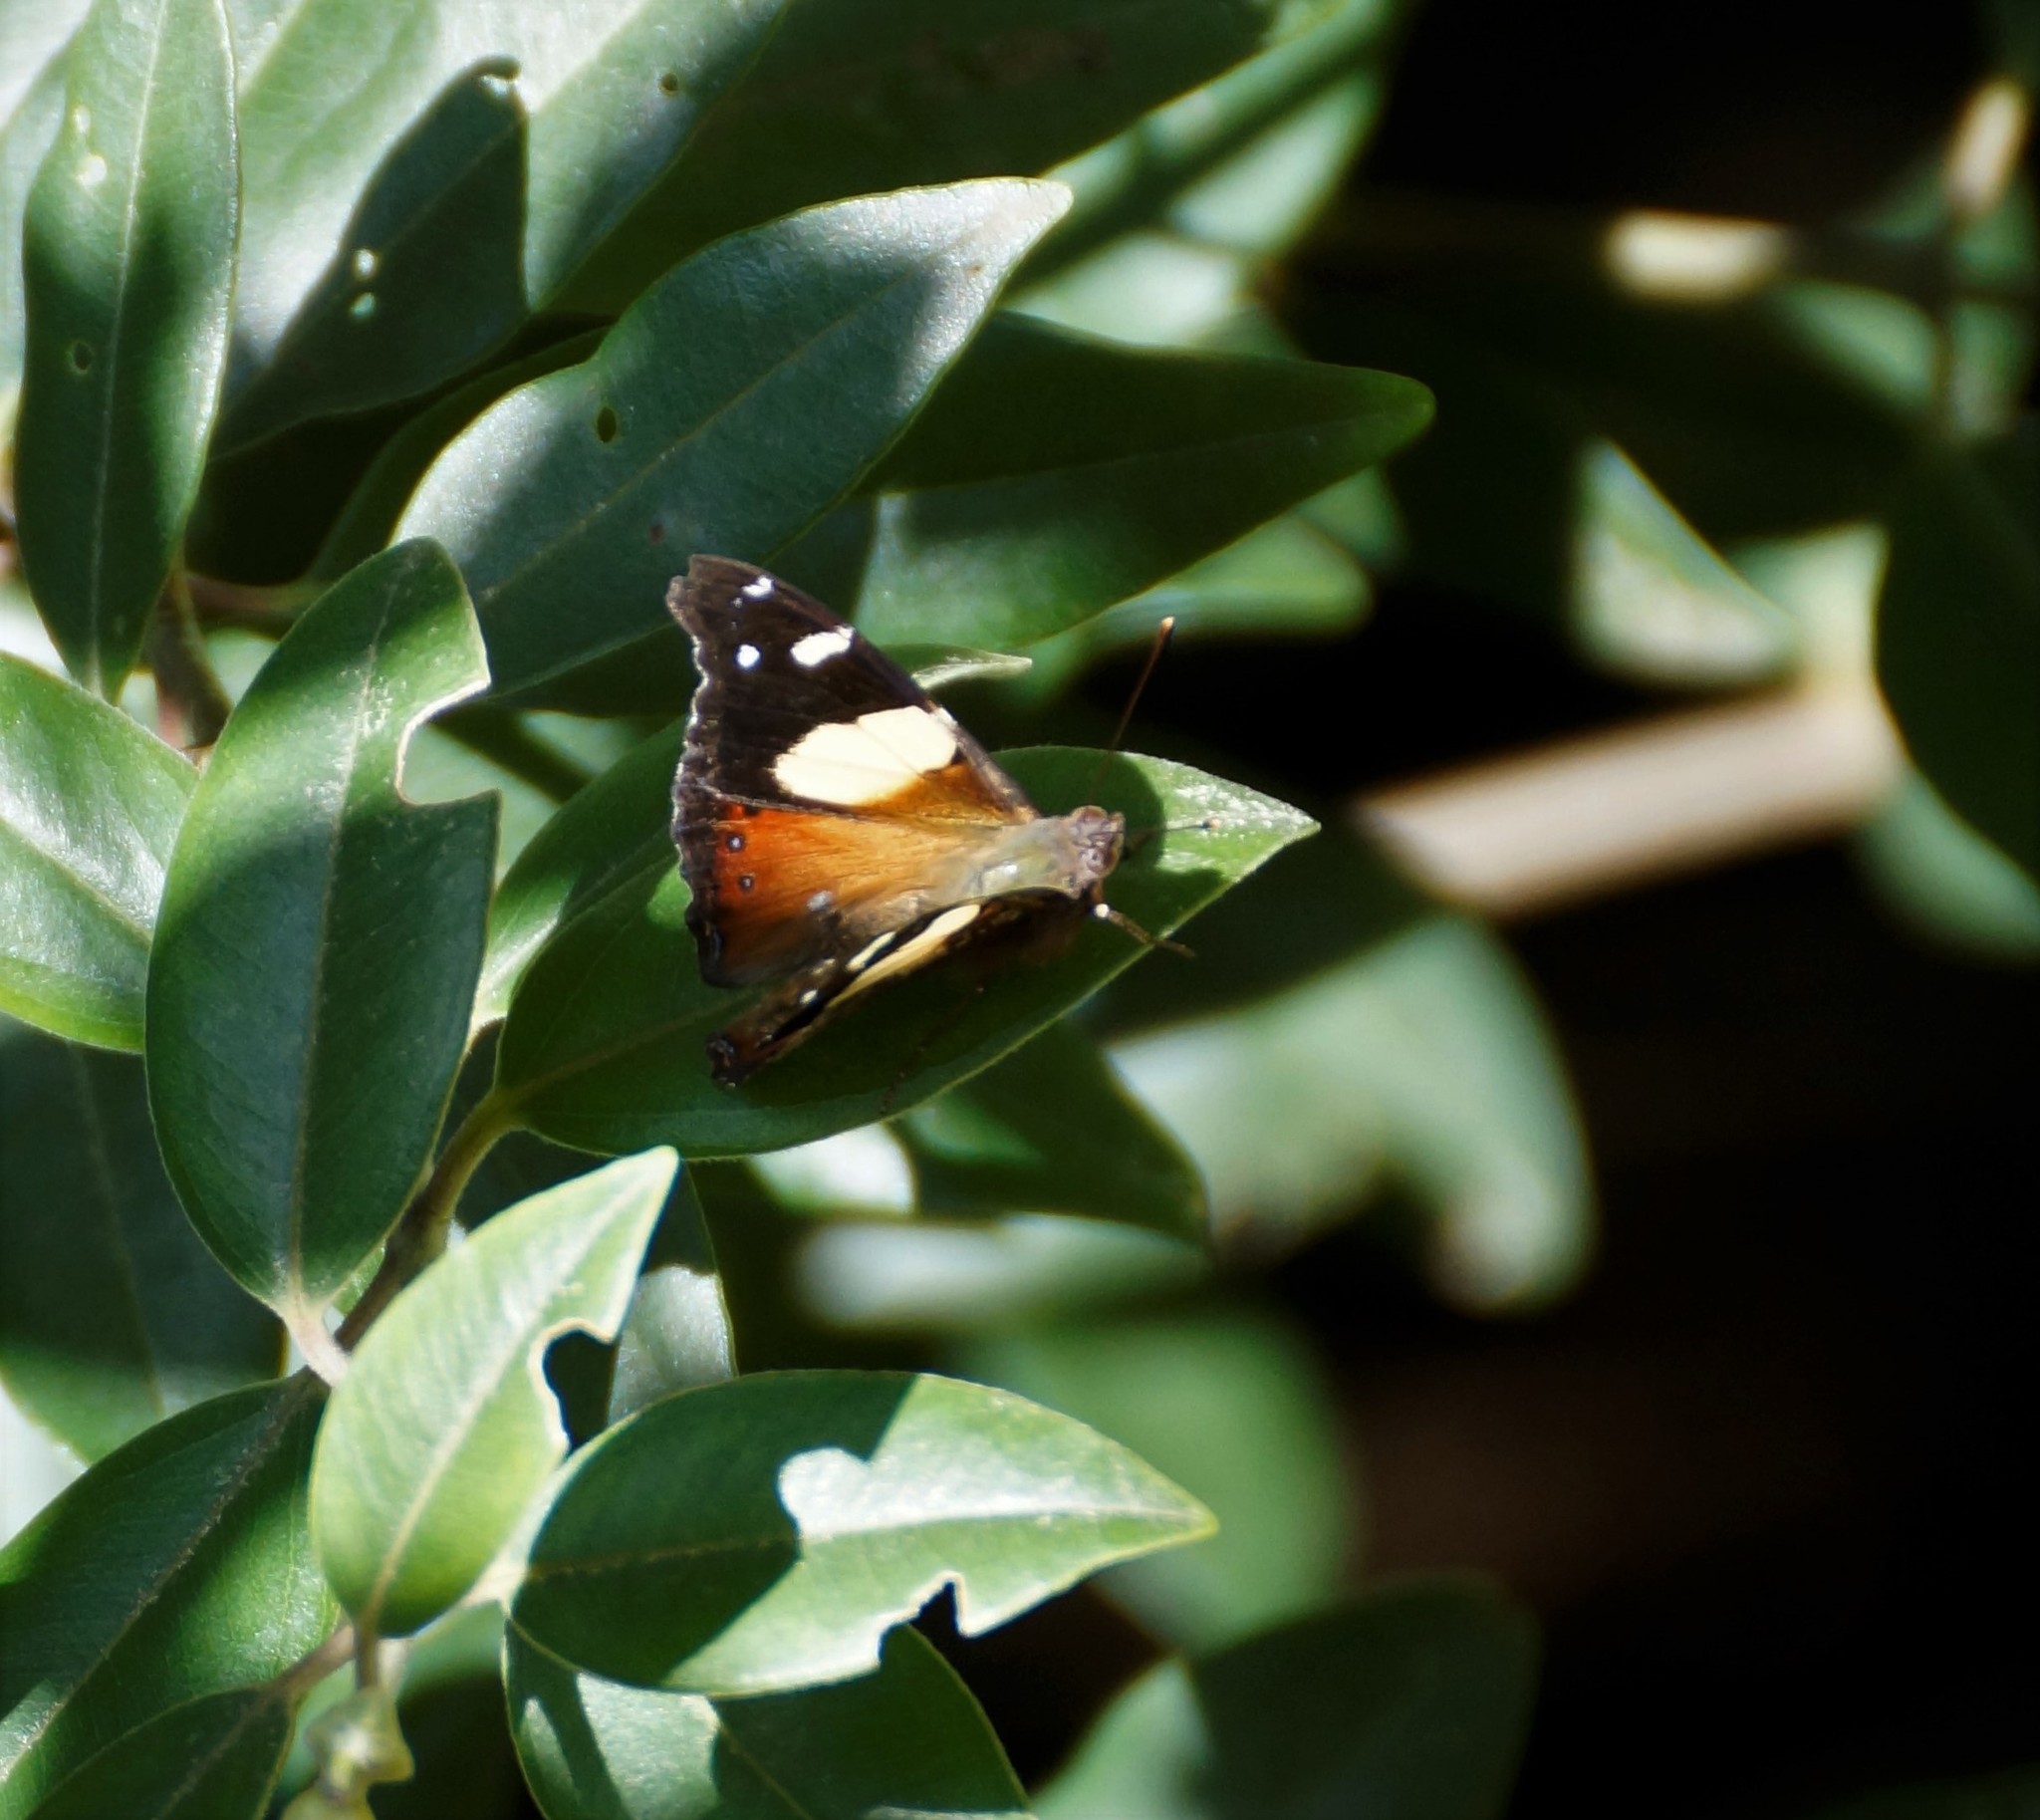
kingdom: Animalia
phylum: Arthropoda
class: Insecta
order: Lepidoptera
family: Nymphalidae
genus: Vanessa
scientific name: Vanessa itea
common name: Yellow admiral
